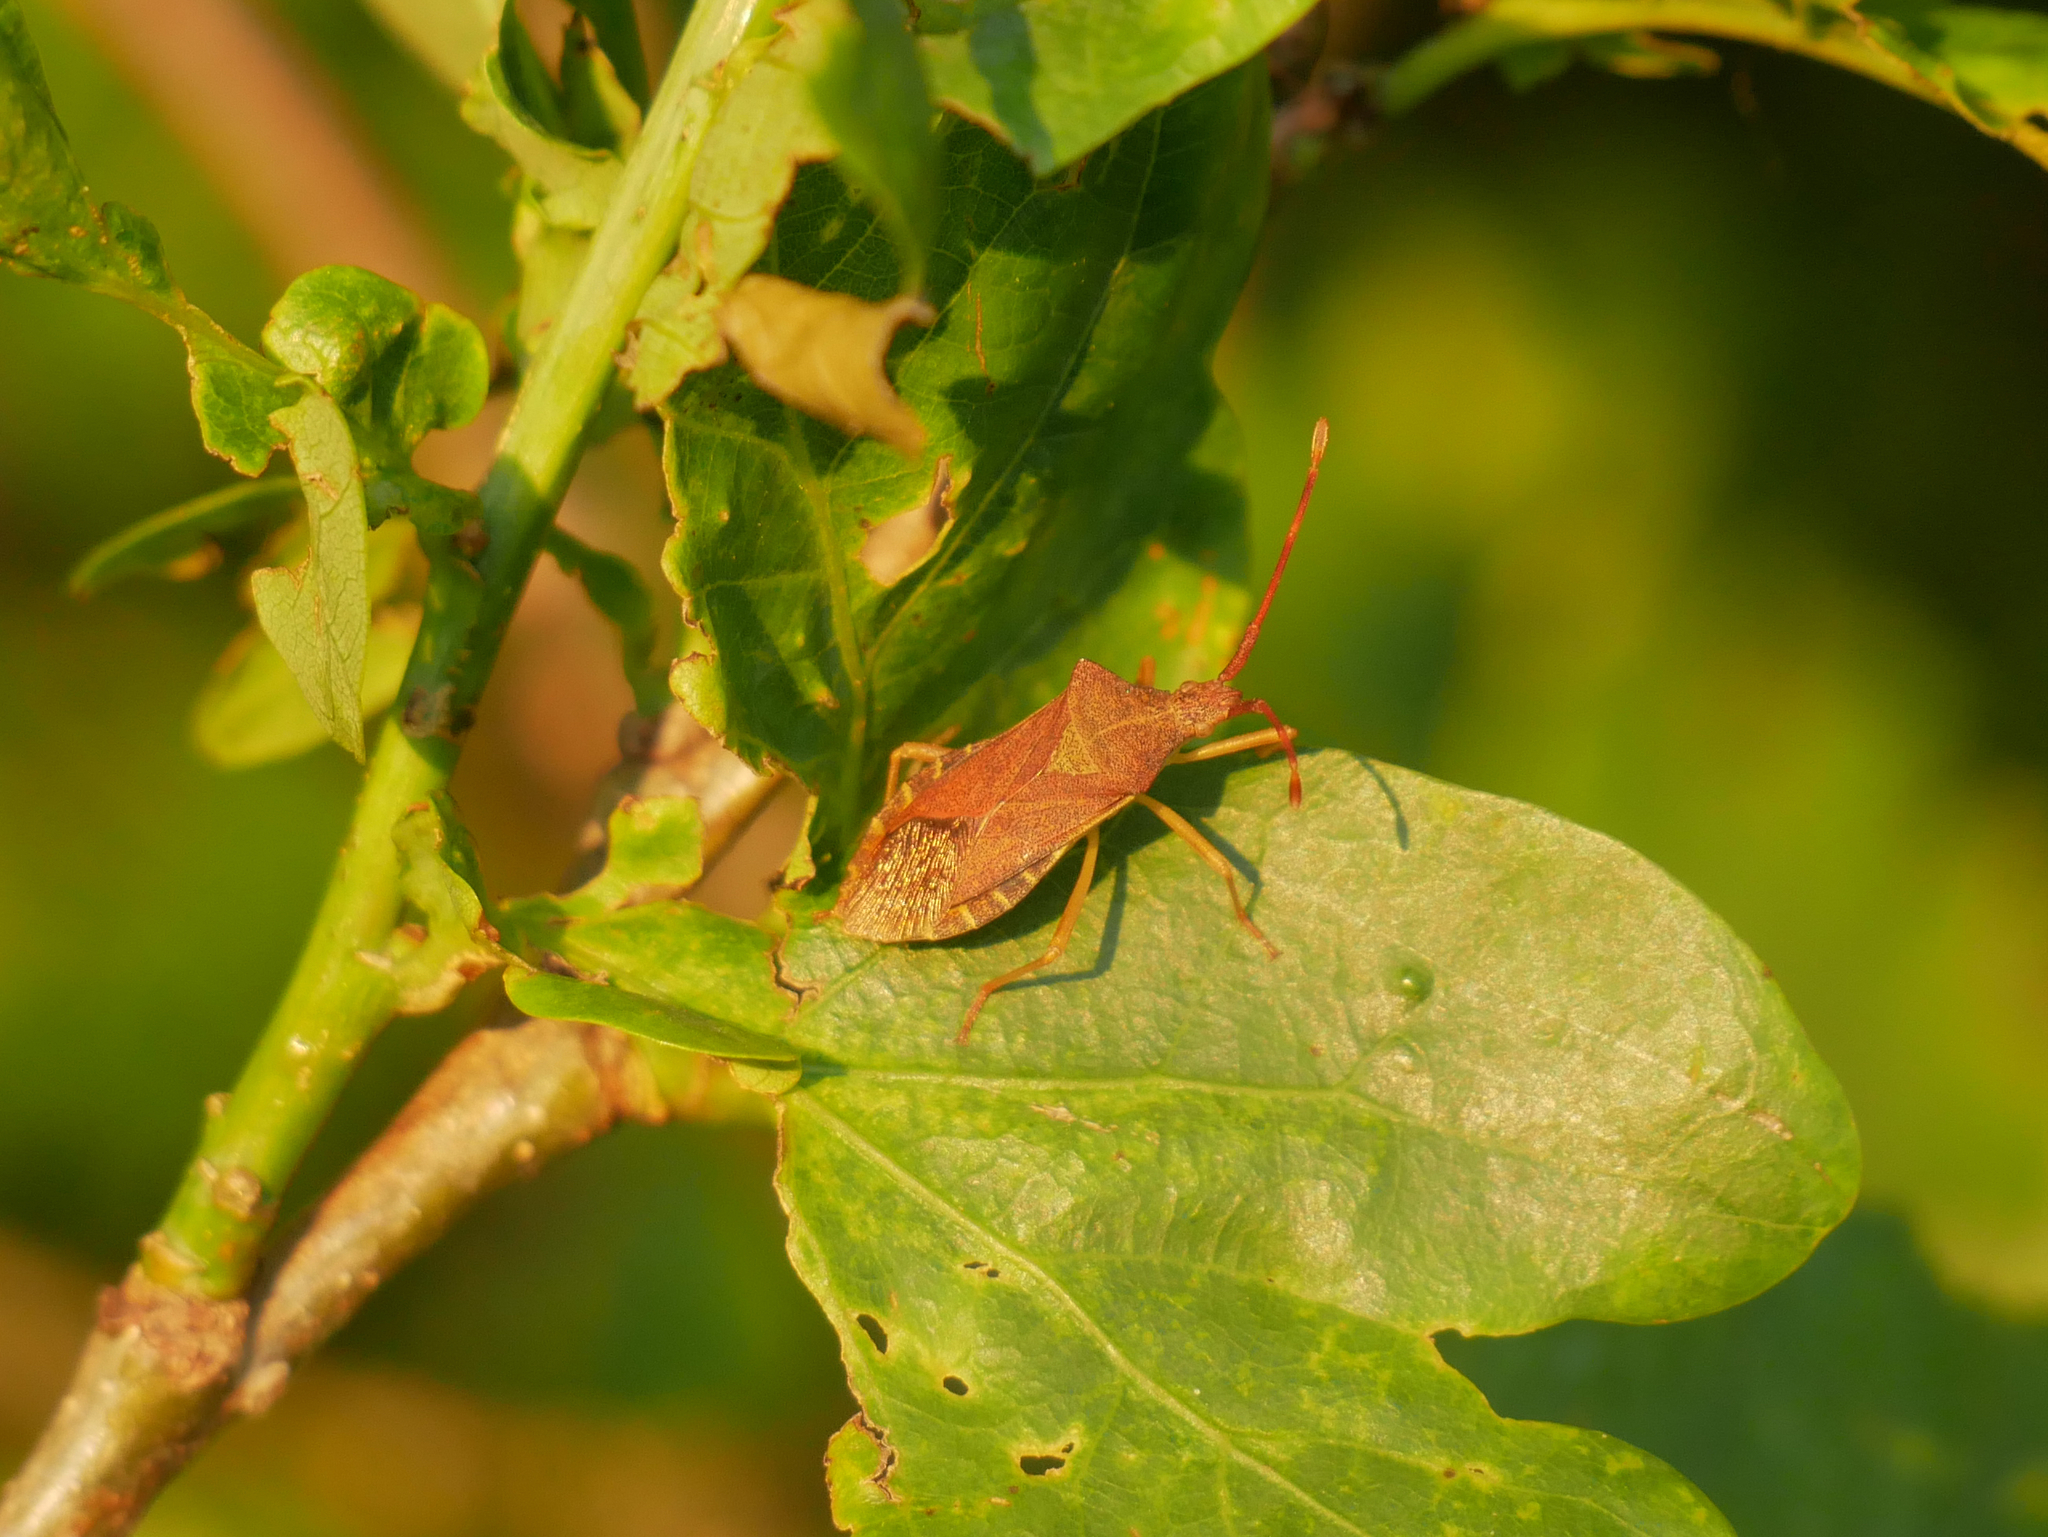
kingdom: Animalia
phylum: Arthropoda
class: Insecta
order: Hemiptera
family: Coreidae
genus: Gonocerus
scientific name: Gonocerus acuteangulatus
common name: Box bug
